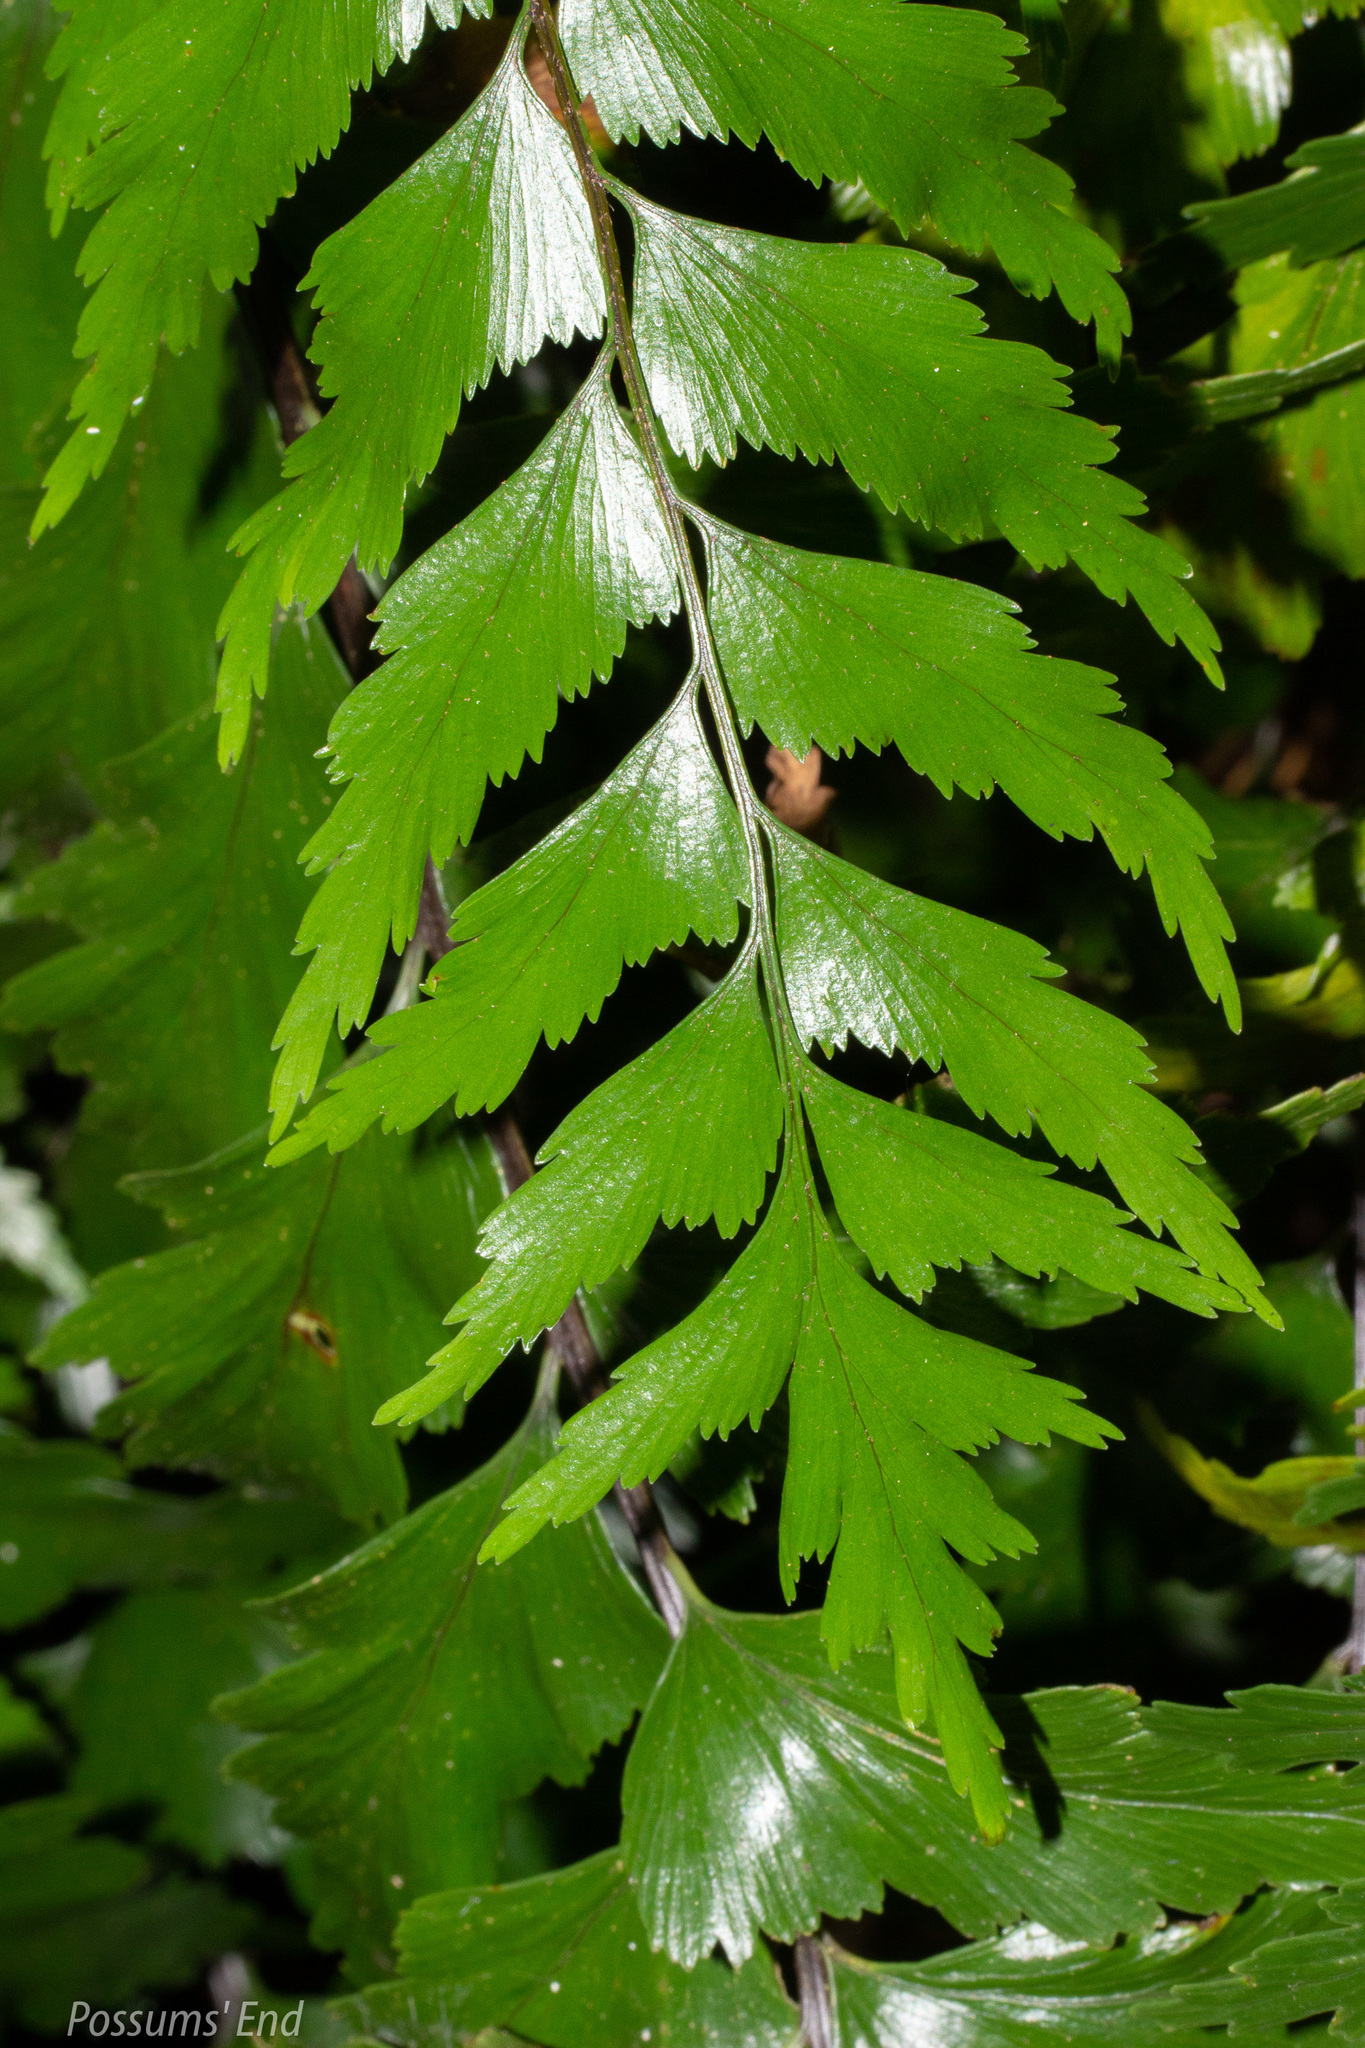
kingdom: Plantae
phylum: Tracheophyta
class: Polypodiopsida
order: Polypodiales
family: Aspleniaceae
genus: Asplenium
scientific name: Asplenium polyodon
